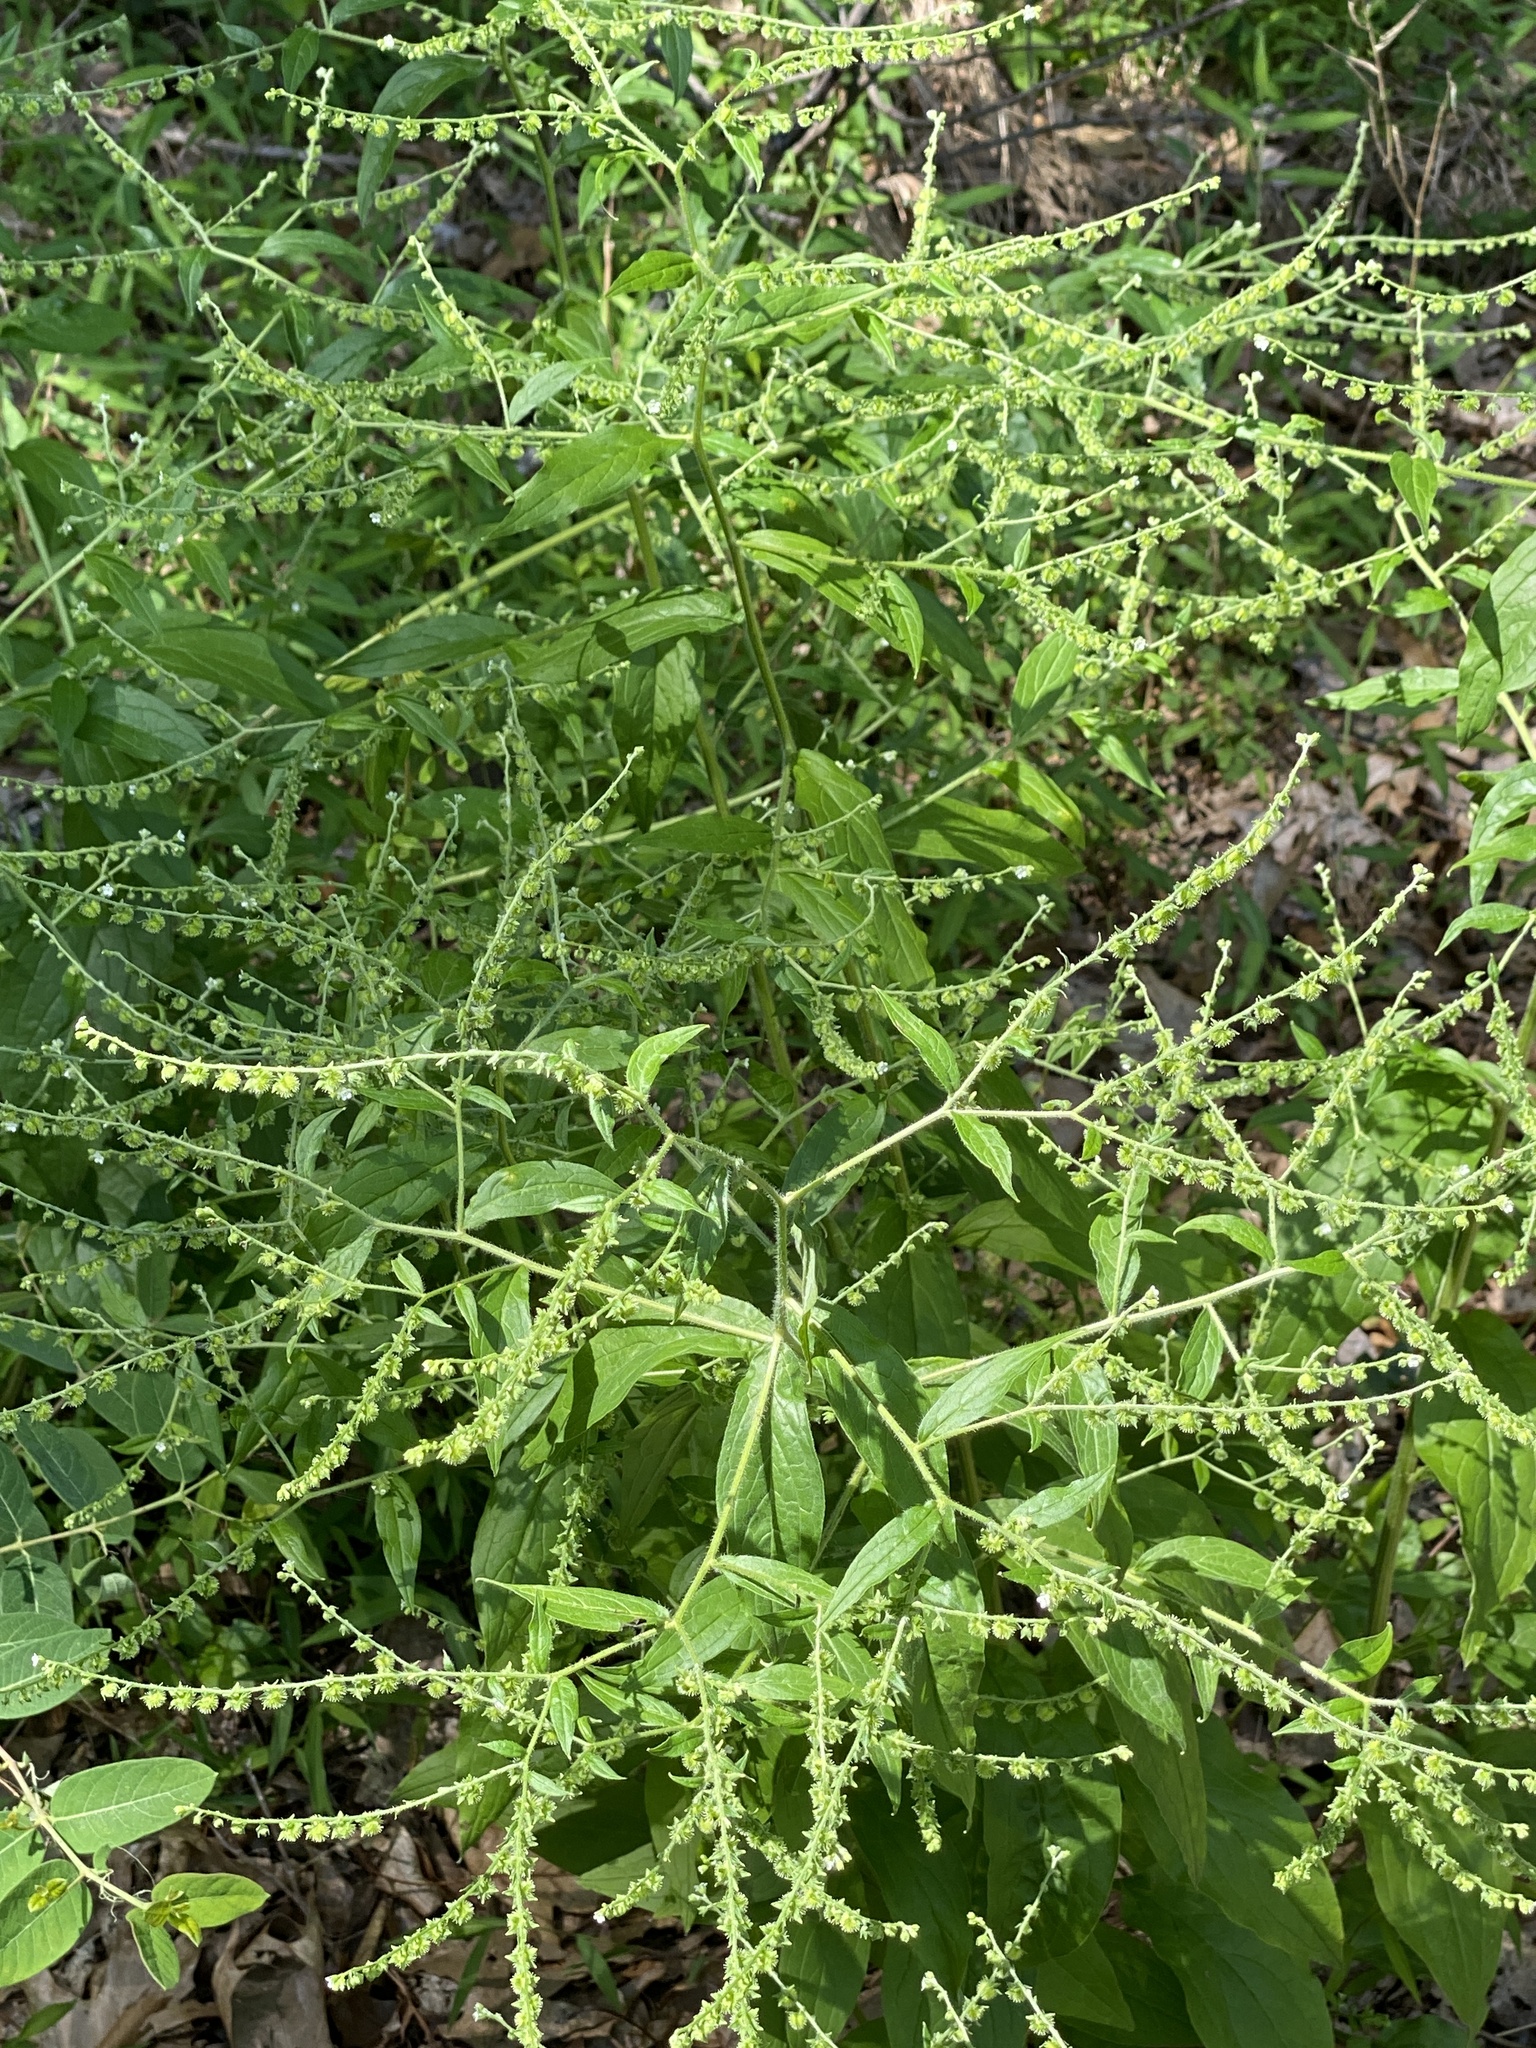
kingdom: Plantae
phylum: Tracheophyta
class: Magnoliopsida
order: Boraginales
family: Boraginaceae
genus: Hackelia
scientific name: Hackelia virginiana
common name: Beggar's-lice
